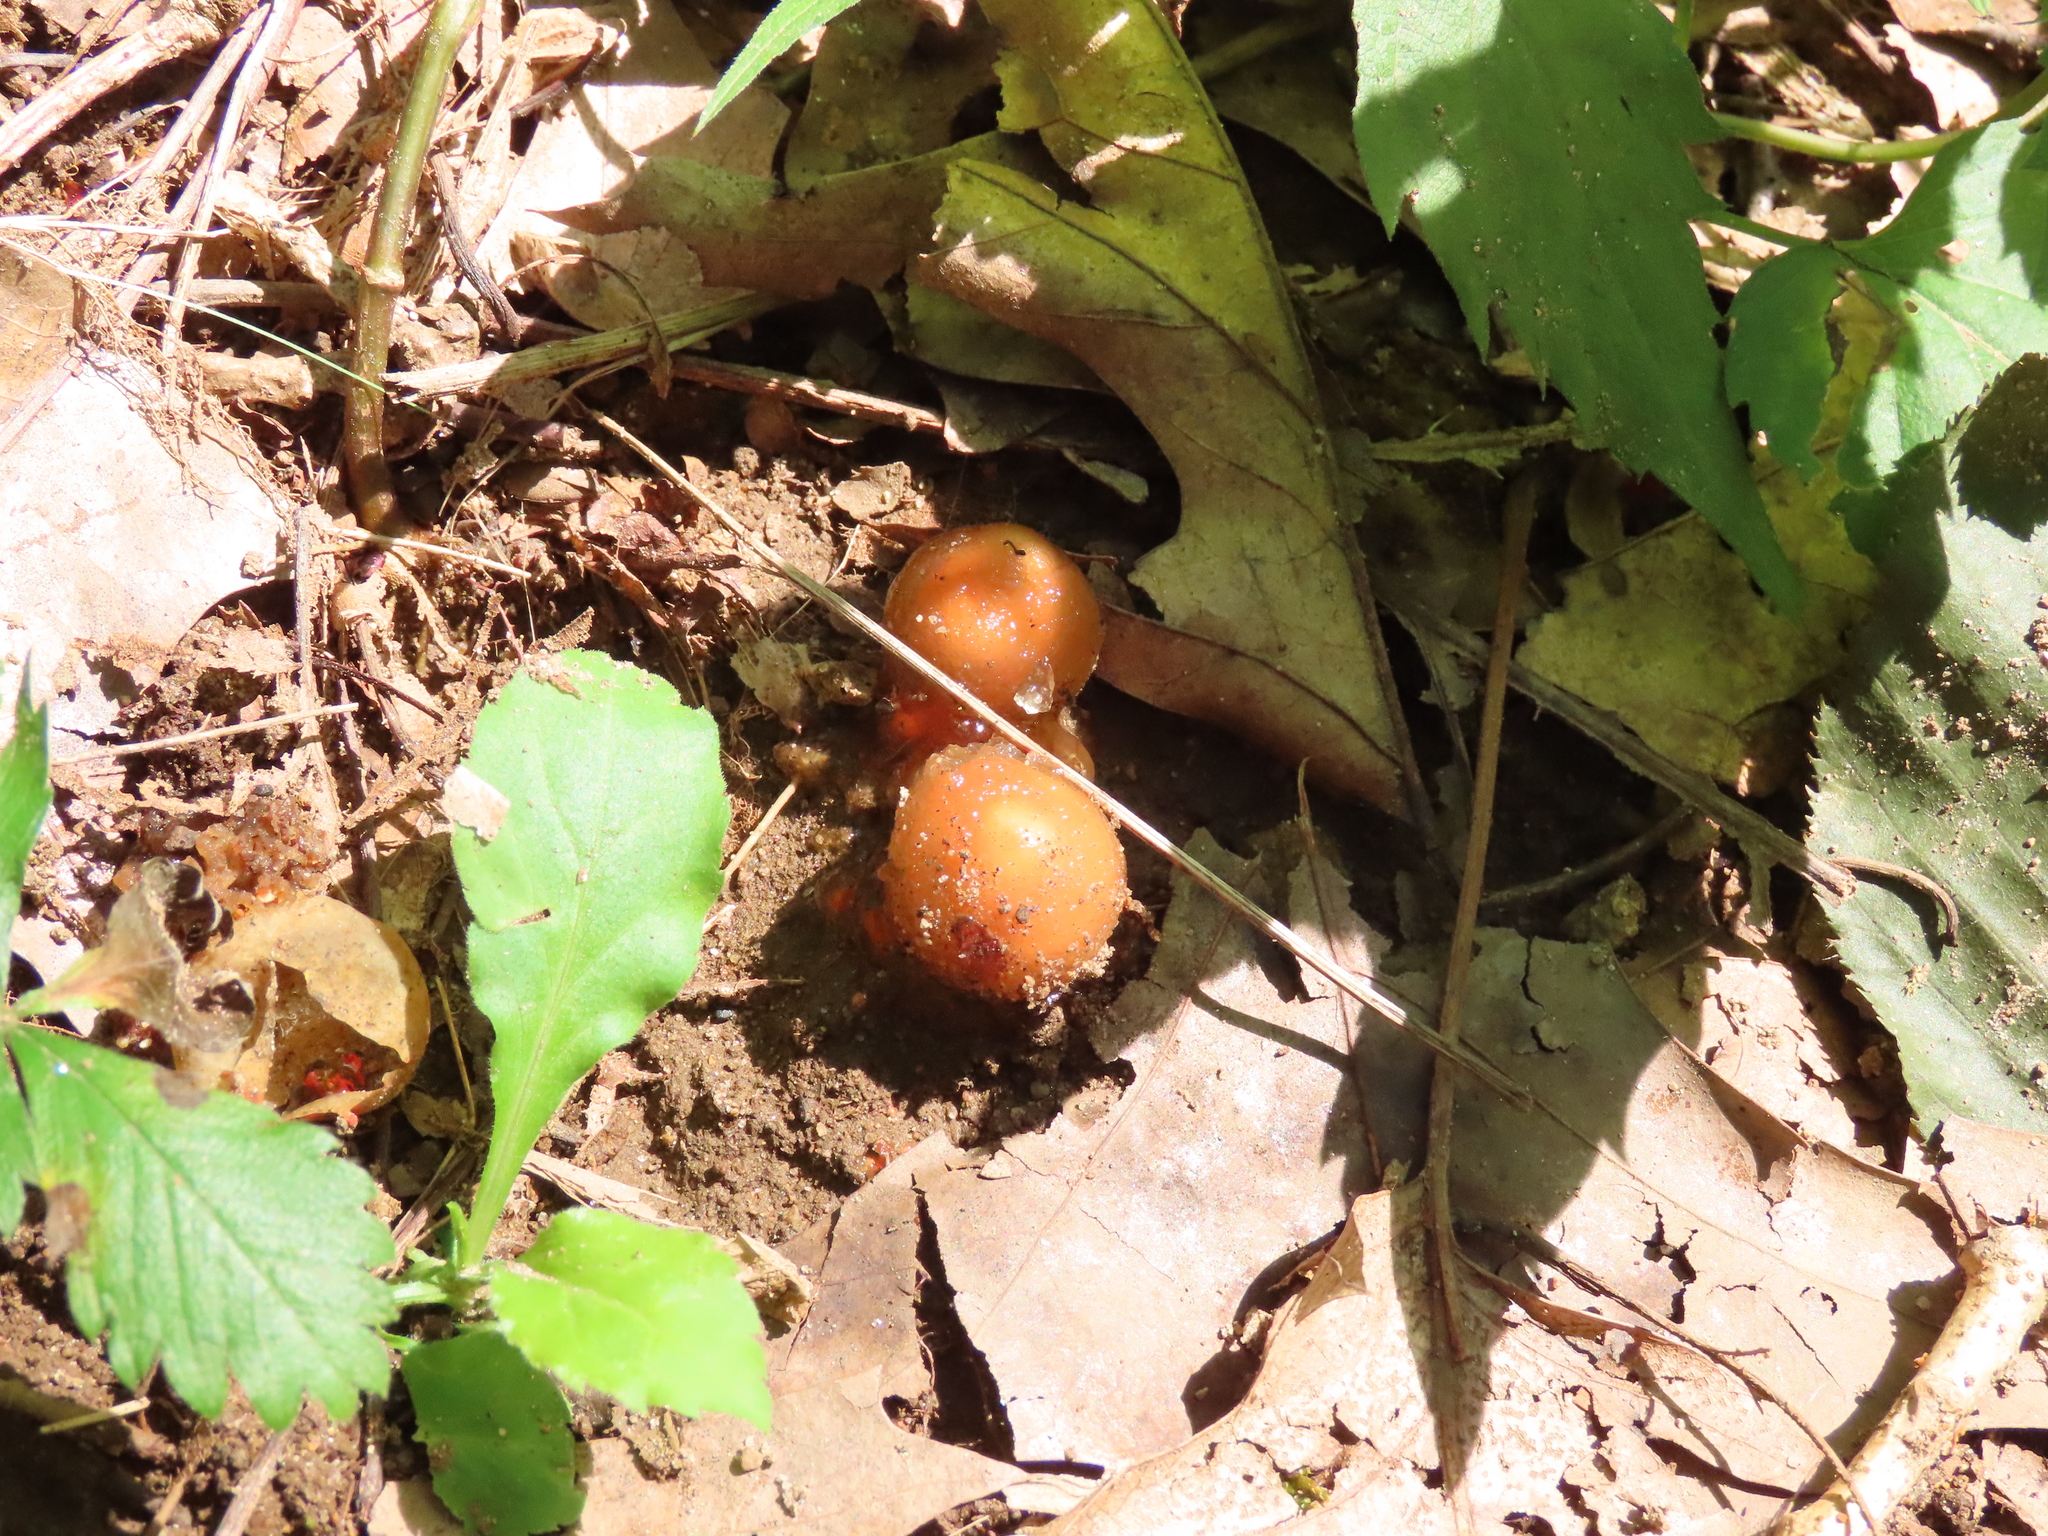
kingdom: Fungi
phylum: Basidiomycota
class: Agaricomycetes
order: Boletales
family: Calostomataceae
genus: Calostoma
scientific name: Calostoma cinnabarinum
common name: Stalked puffball-in-aspic
